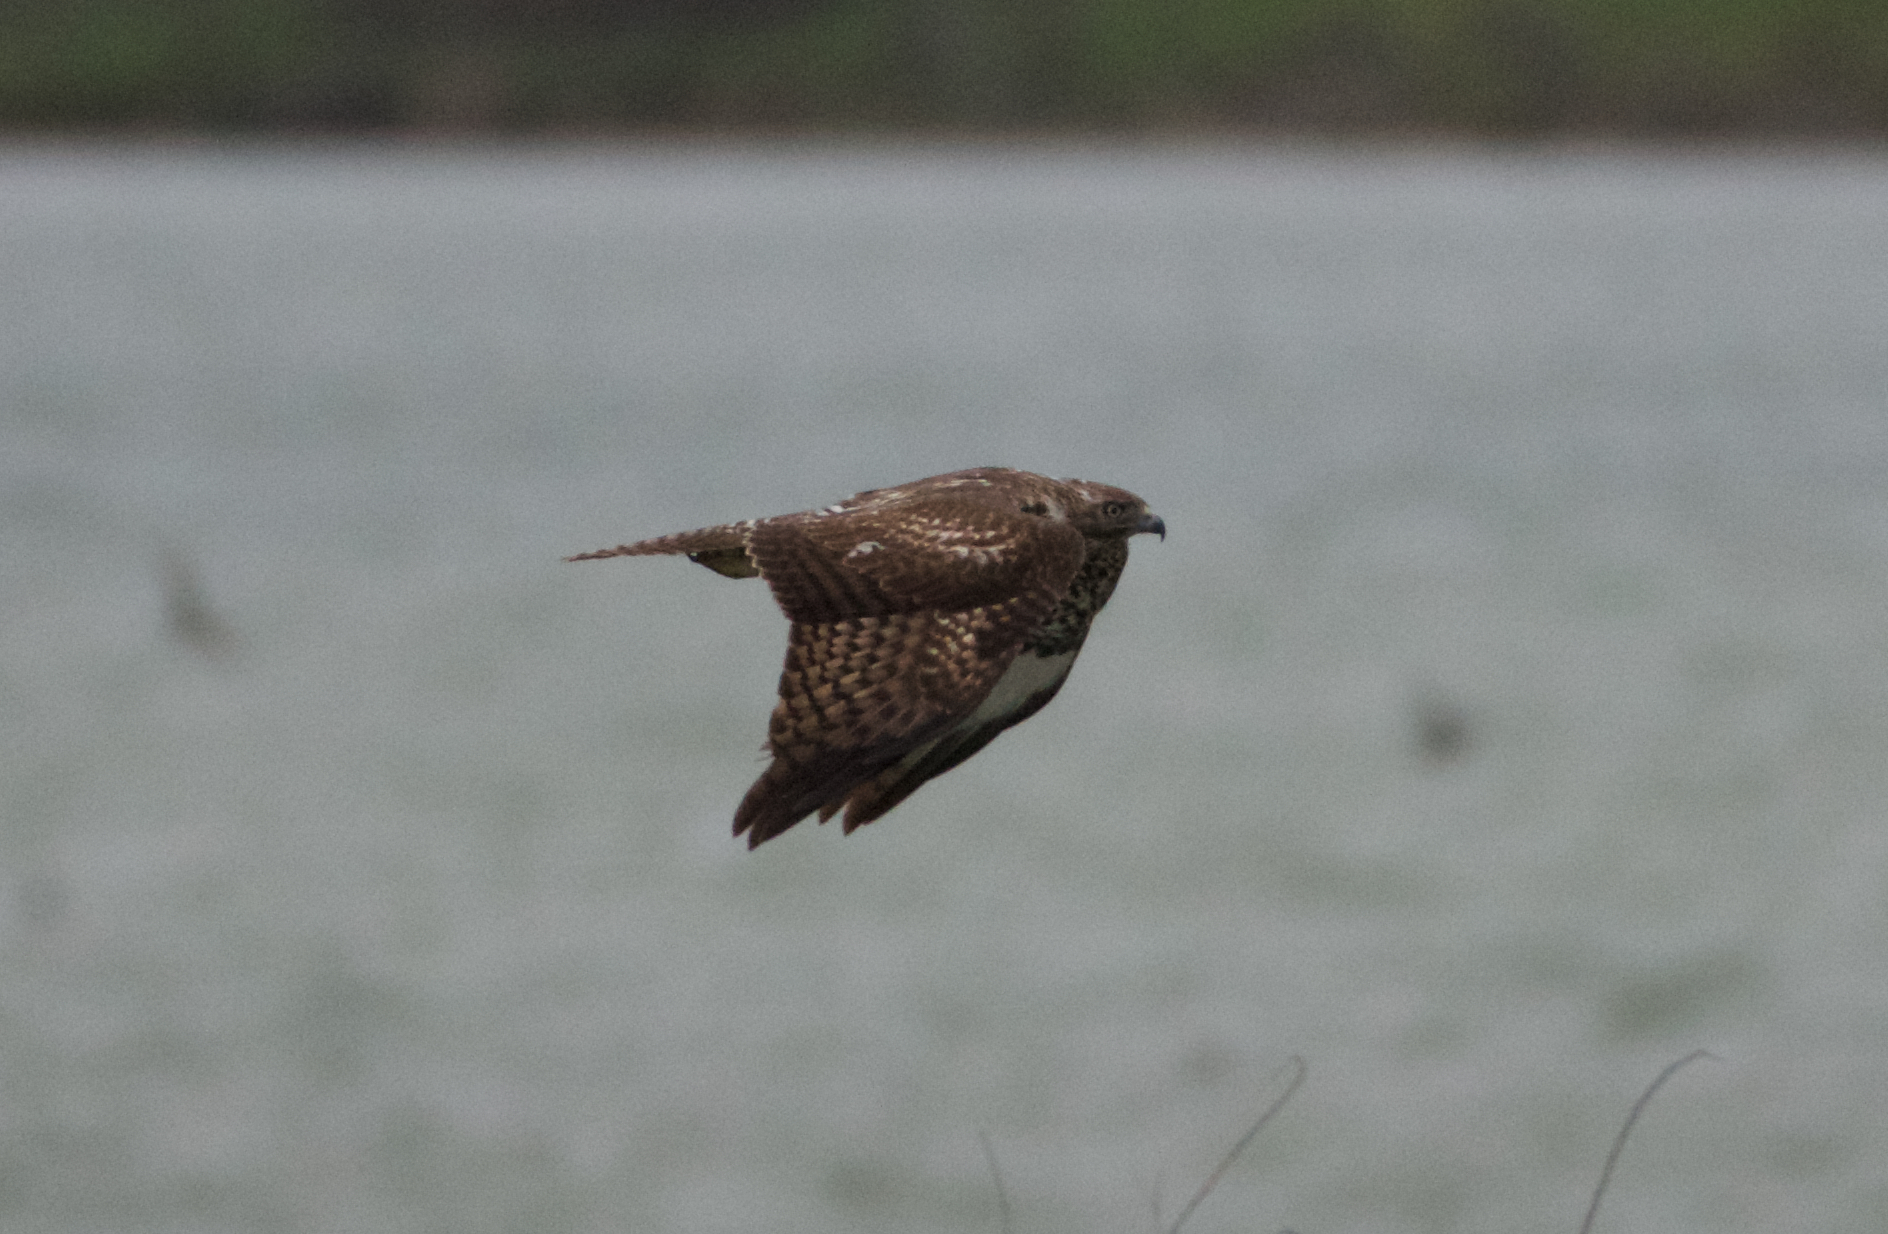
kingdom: Animalia
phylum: Chordata
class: Aves
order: Accipitriformes
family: Accipitridae
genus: Buteo
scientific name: Buteo jamaicensis
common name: Red-tailed hawk
